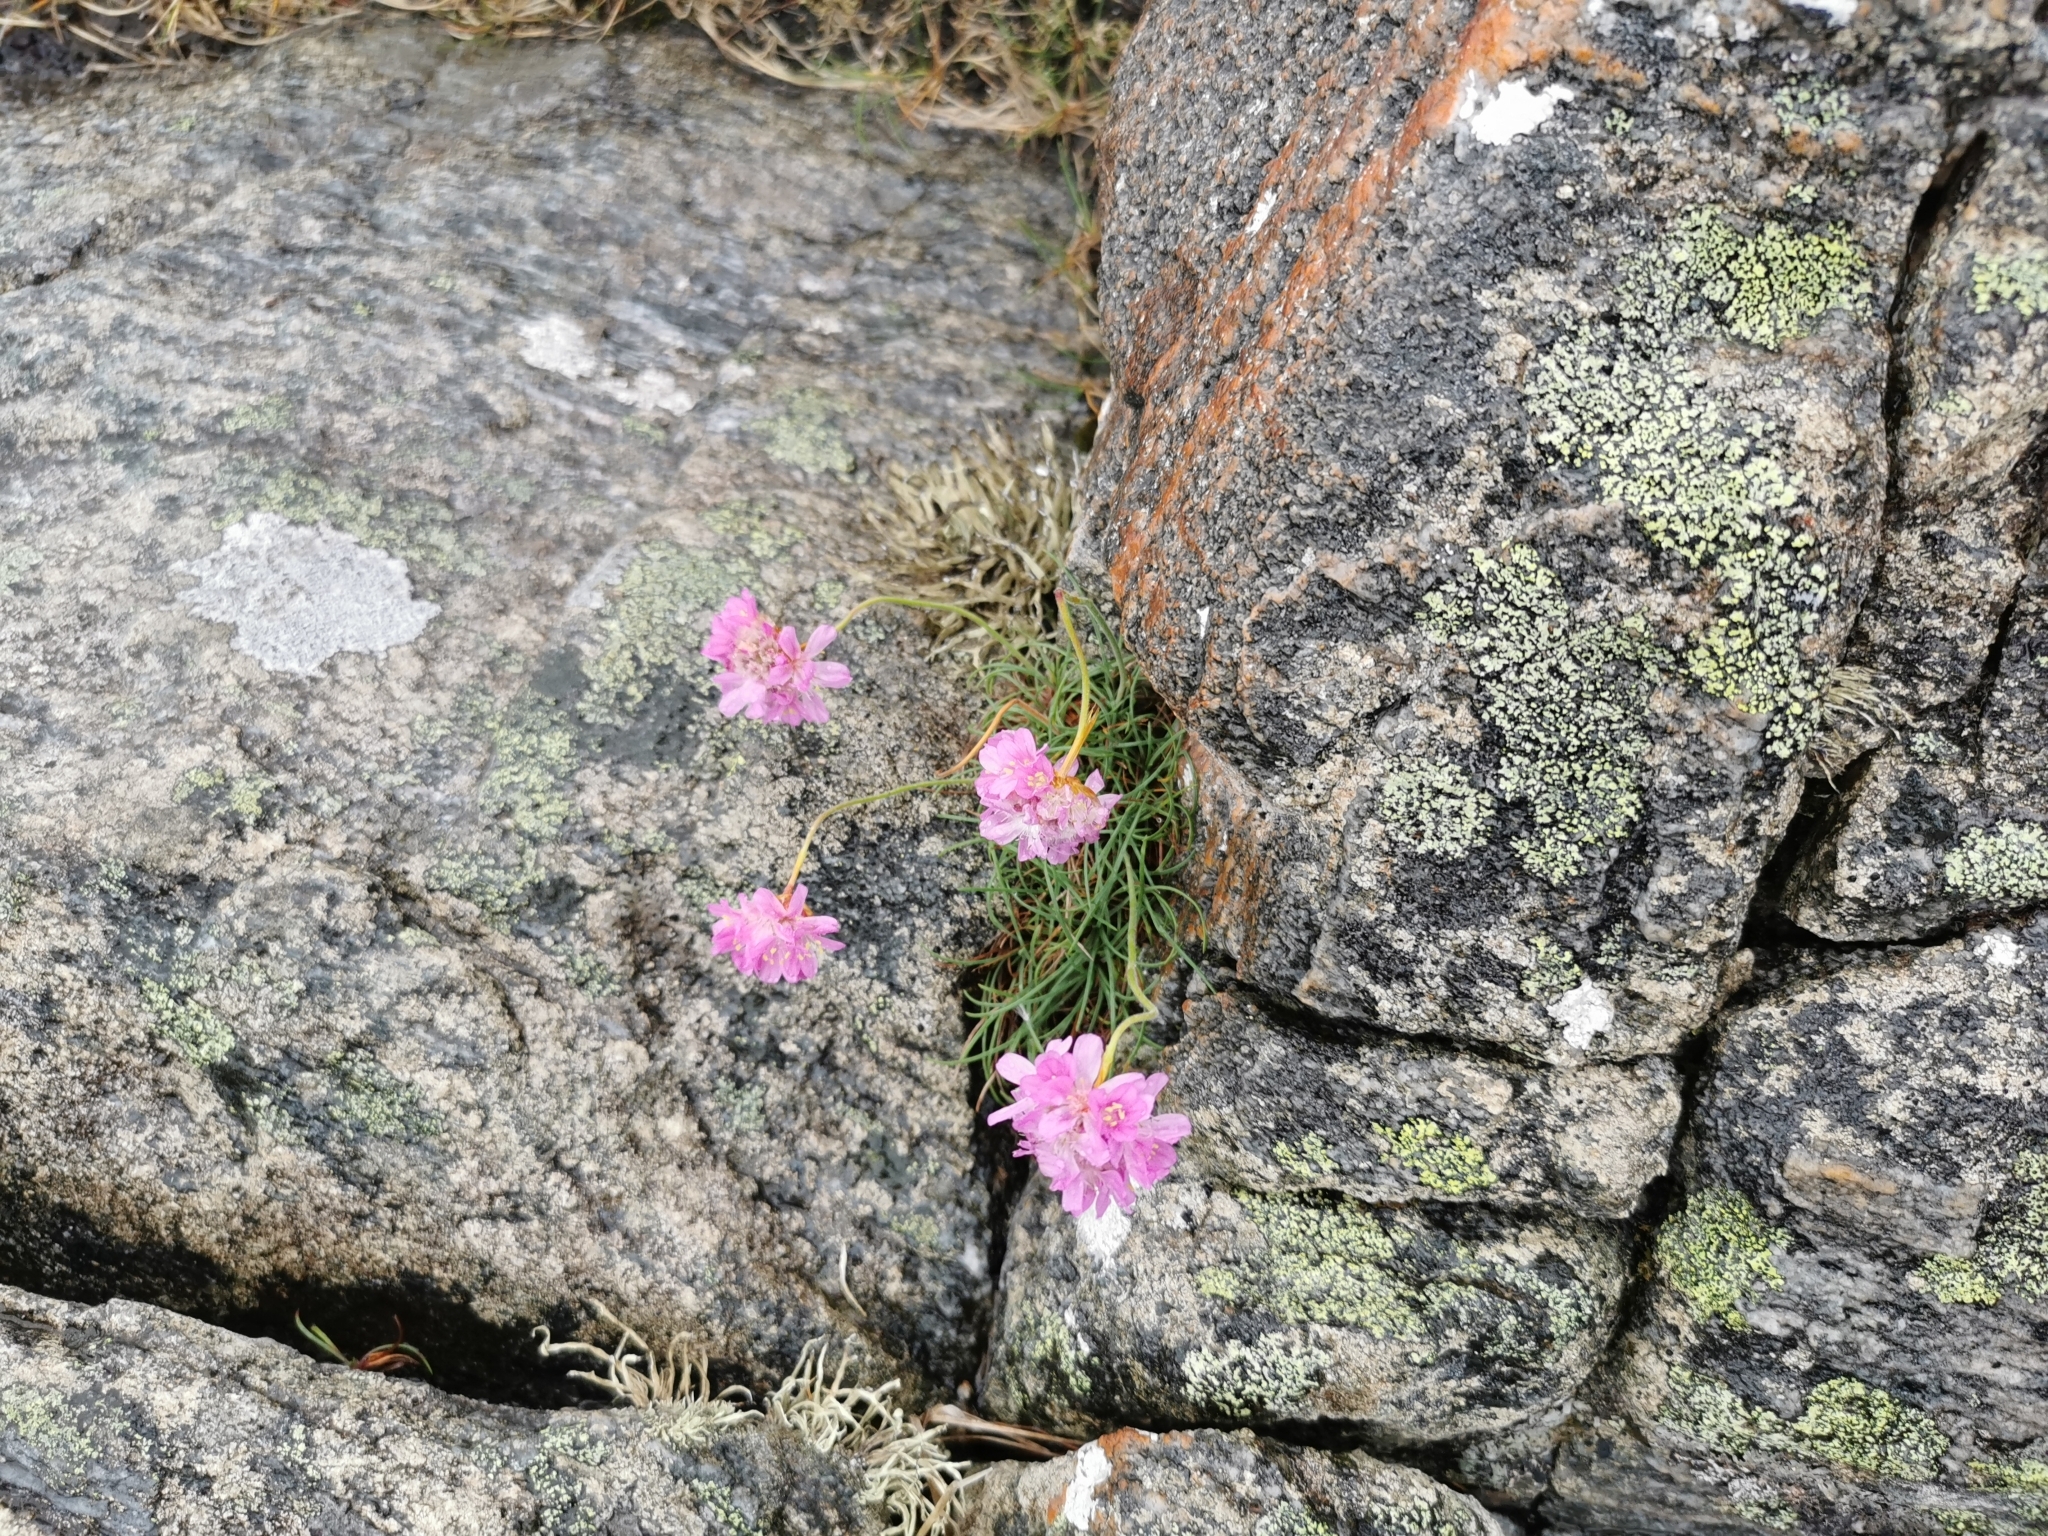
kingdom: Plantae
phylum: Tracheophyta
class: Magnoliopsida
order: Caryophyllales
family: Plumbaginaceae
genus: Armeria
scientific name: Armeria maritima
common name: Thrift
